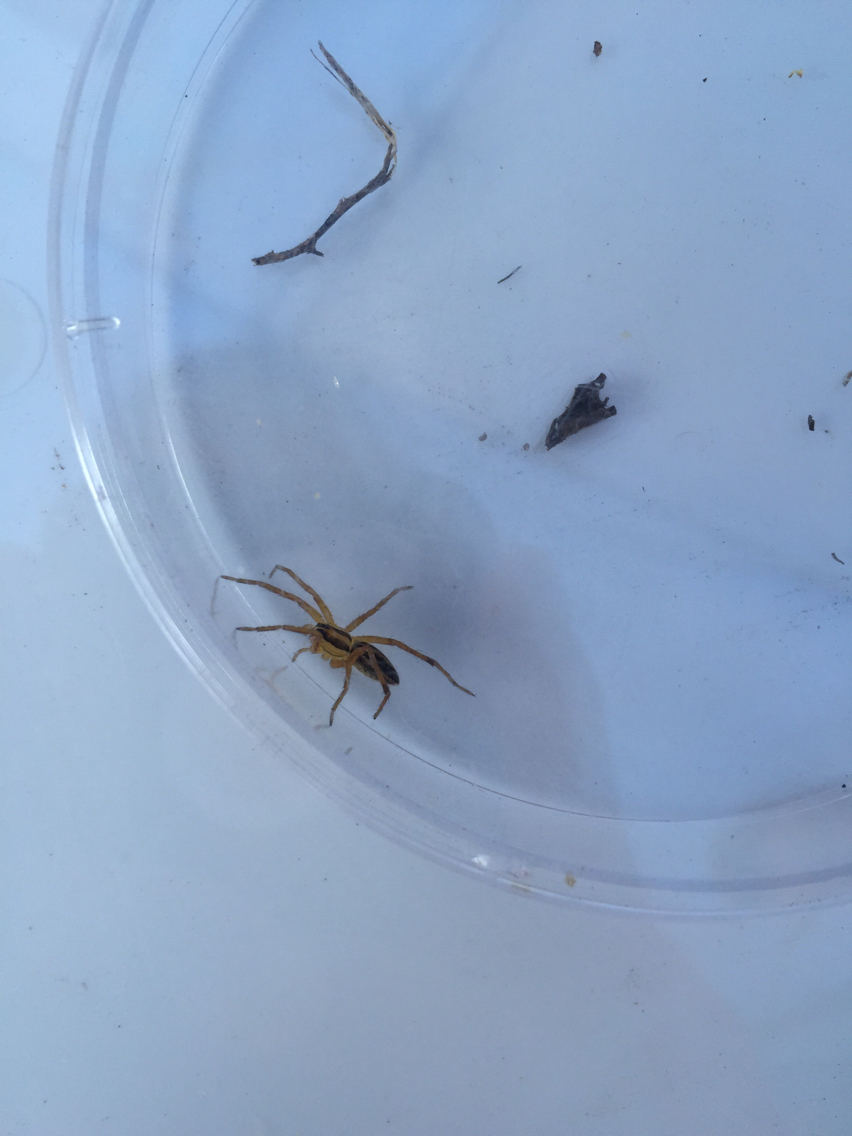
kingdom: Animalia
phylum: Arthropoda
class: Arachnida
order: Araneae
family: Lycosidae
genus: Rabidosa
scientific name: Rabidosa rabida
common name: Rabid wolf spider
